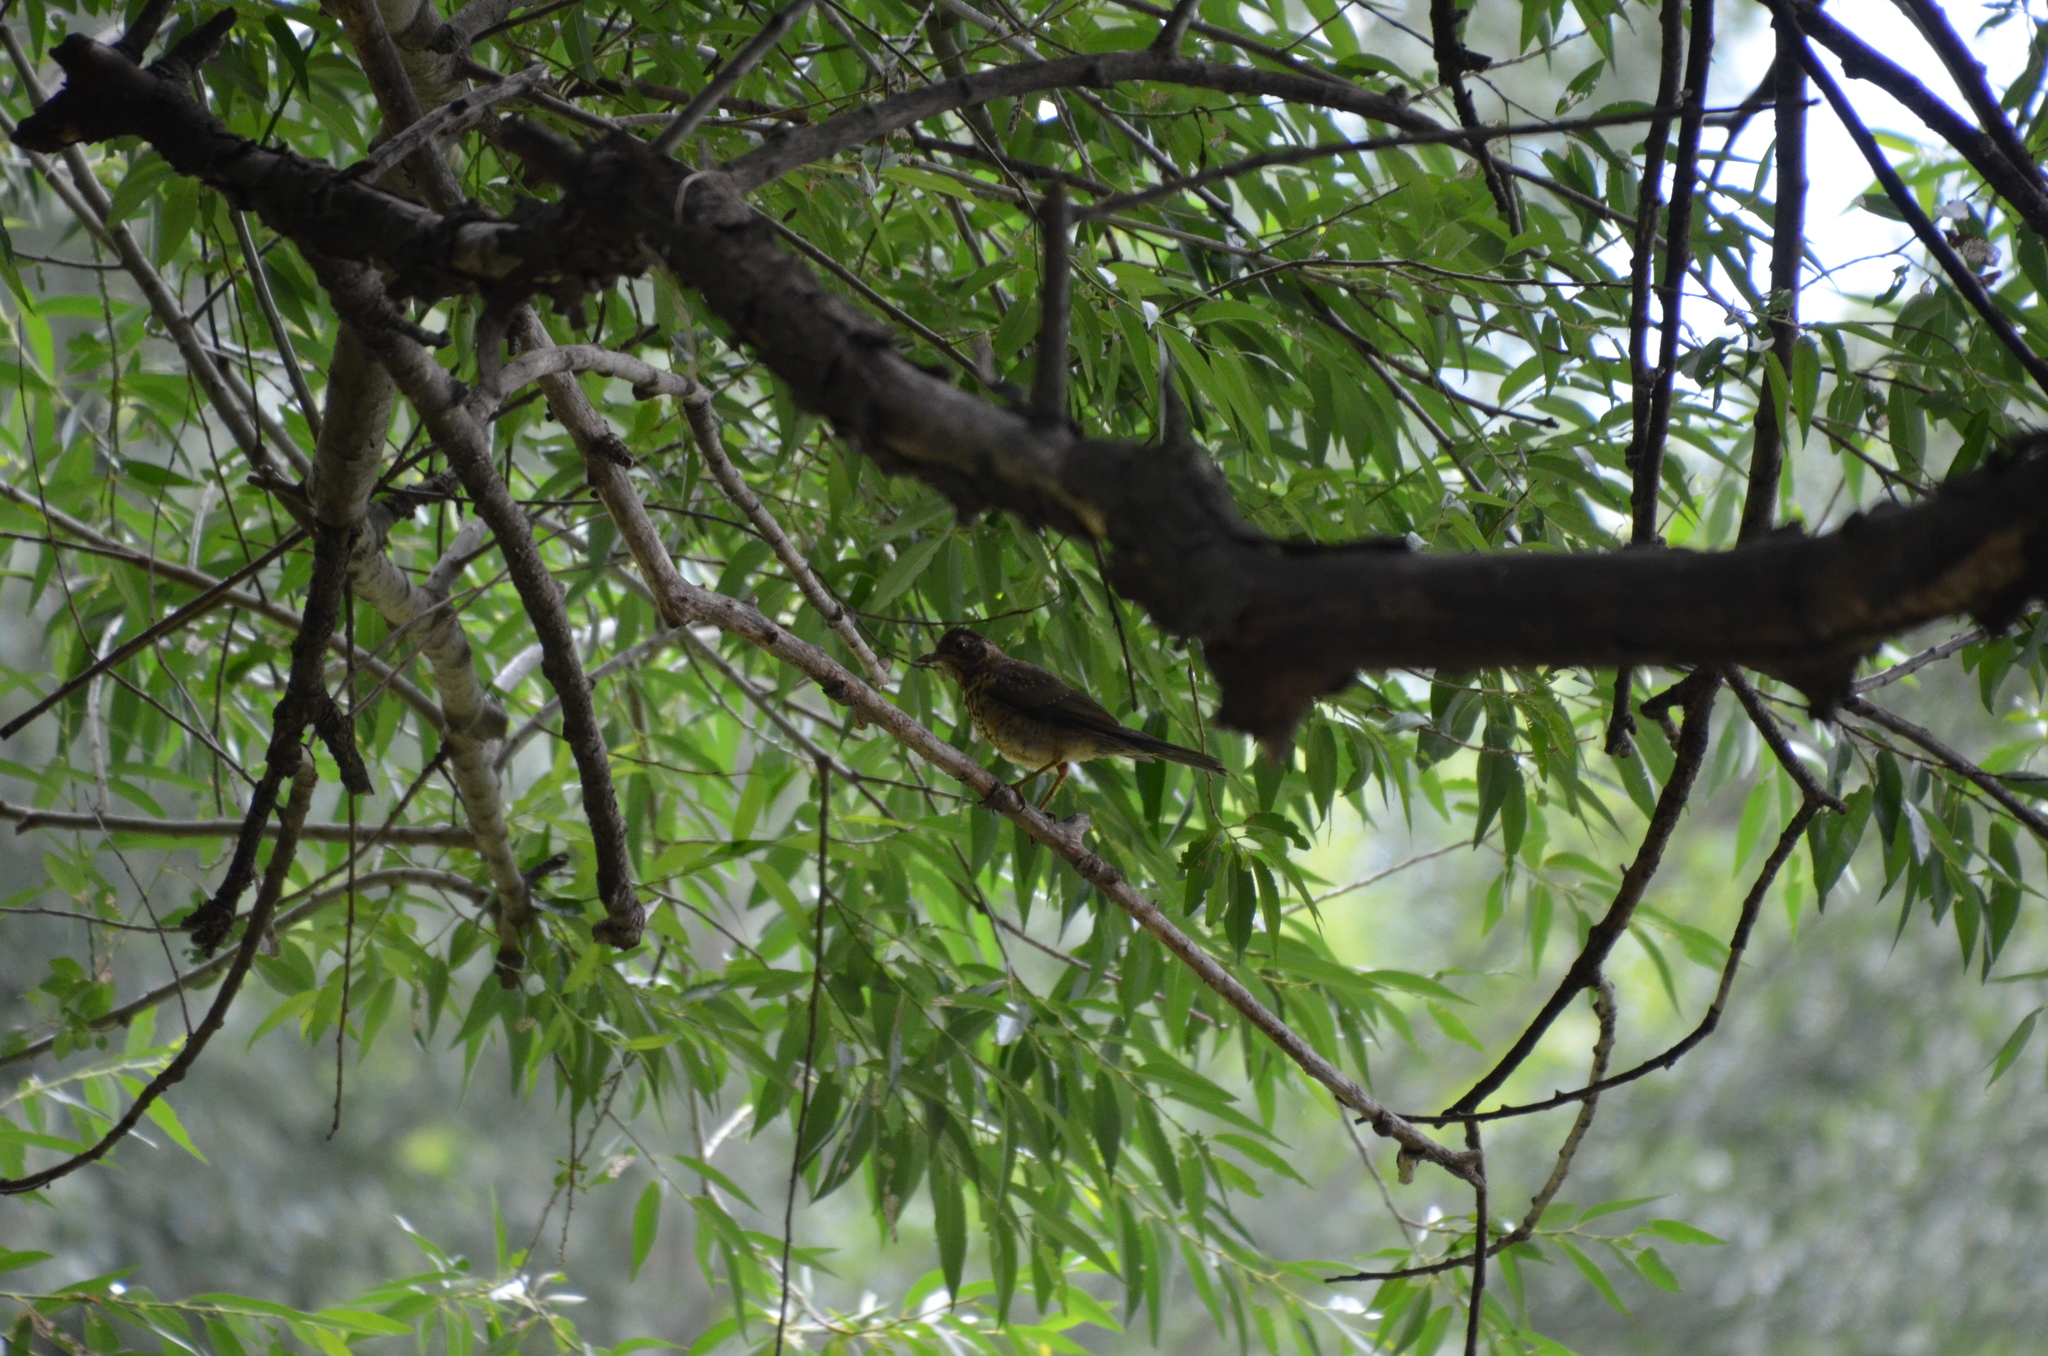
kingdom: Animalia
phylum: Chordata
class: Aves
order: Passeriformes
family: Turdidae
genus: Turdus
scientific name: Turdus falcklandii
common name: Austral thrush
